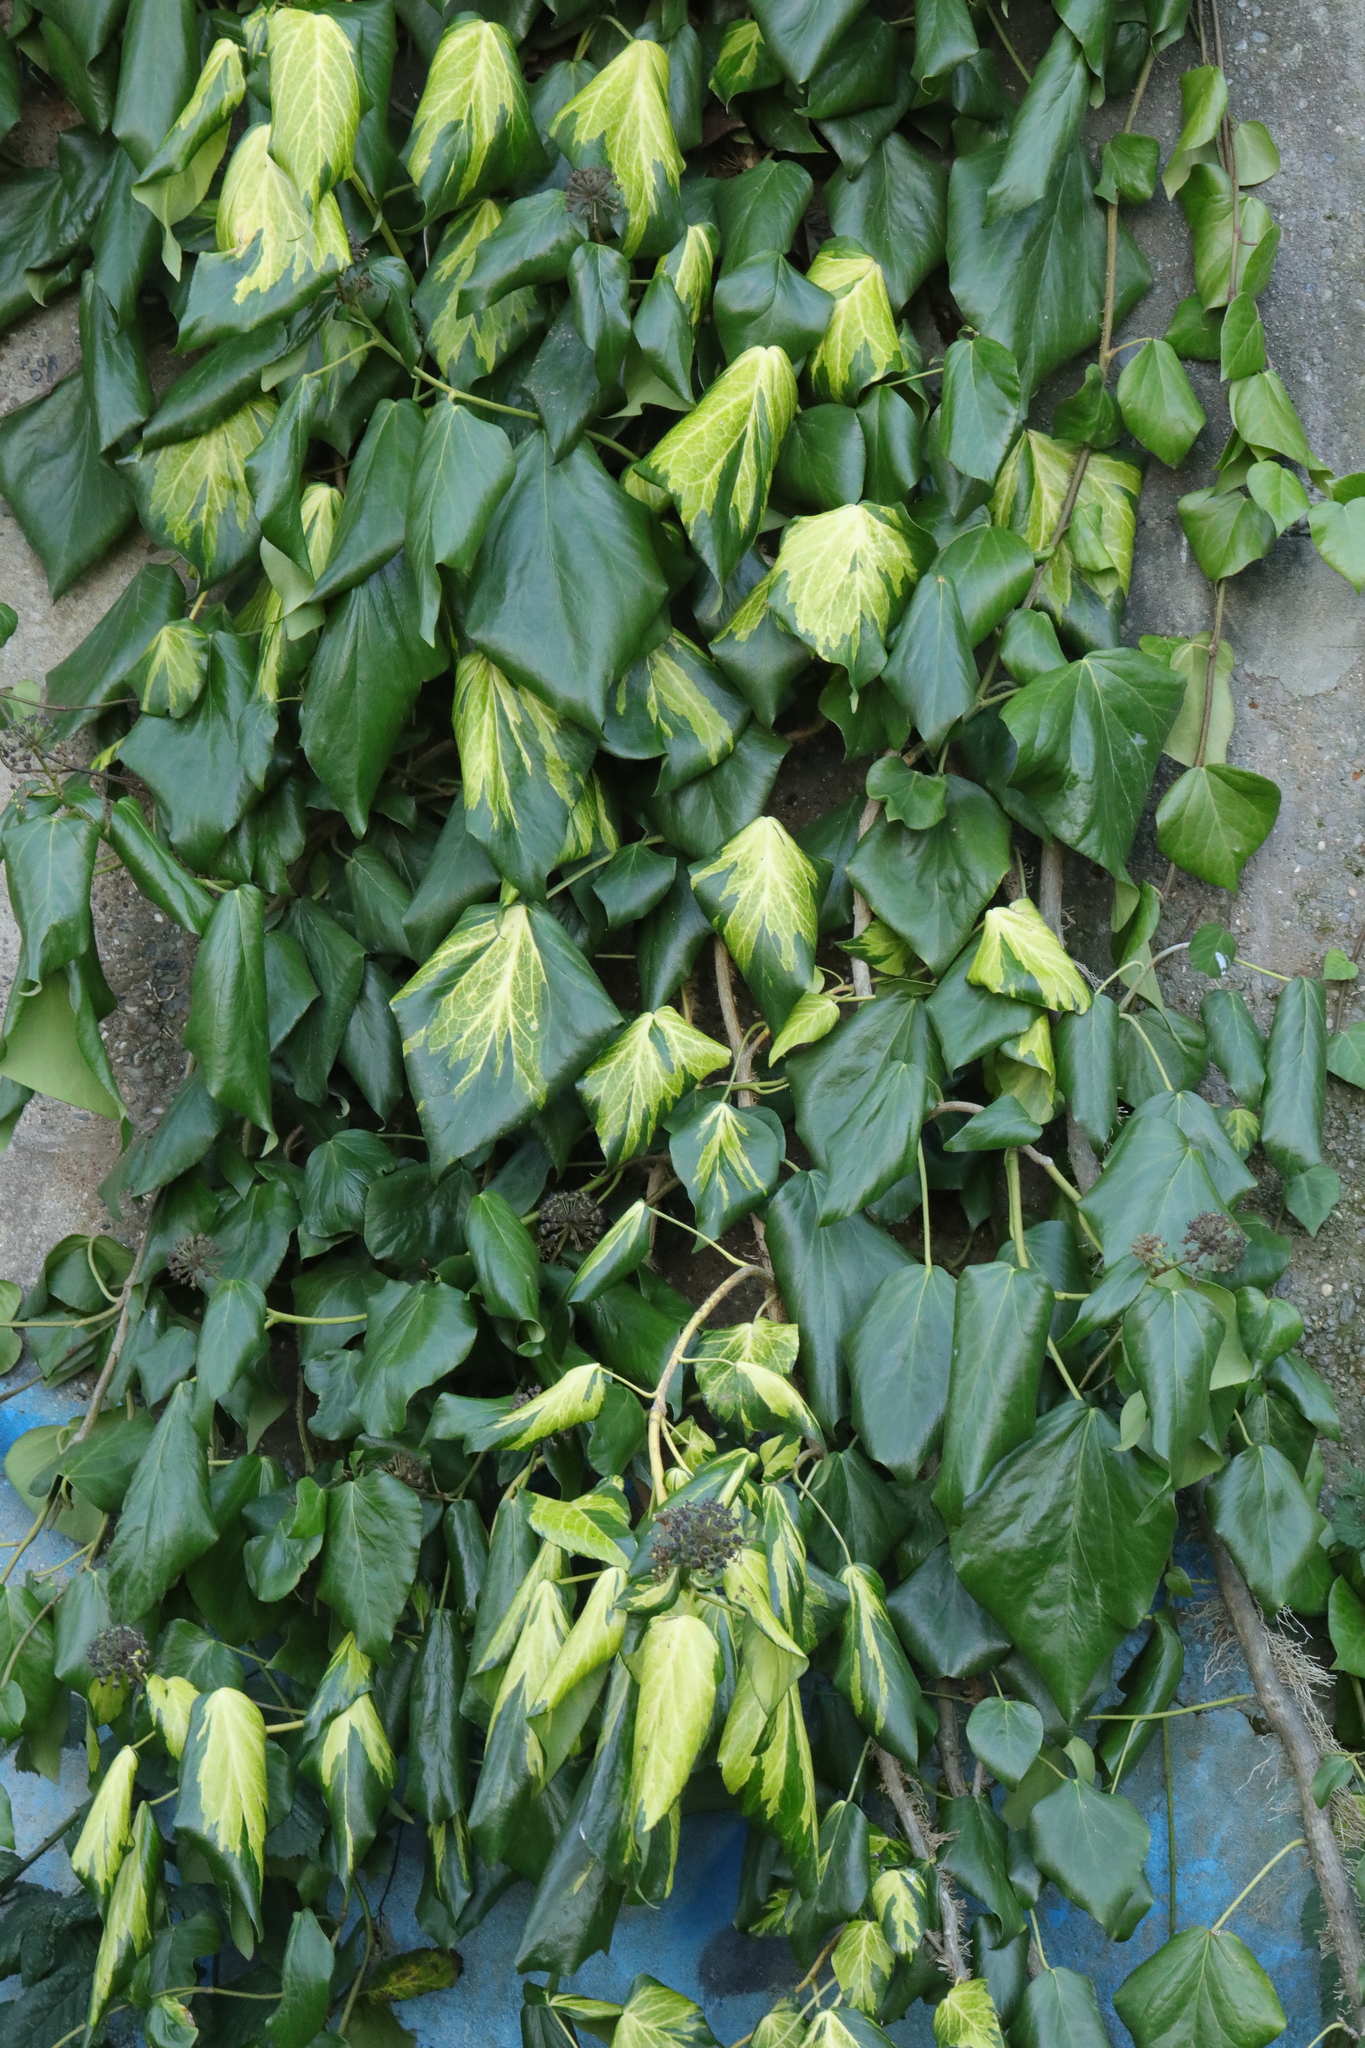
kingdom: Plantae
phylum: Tracheophyta
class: Magnoliopsida
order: Apiales
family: Araliaceae
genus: Hedera
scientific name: Hedera colchica
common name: Persian ivy
